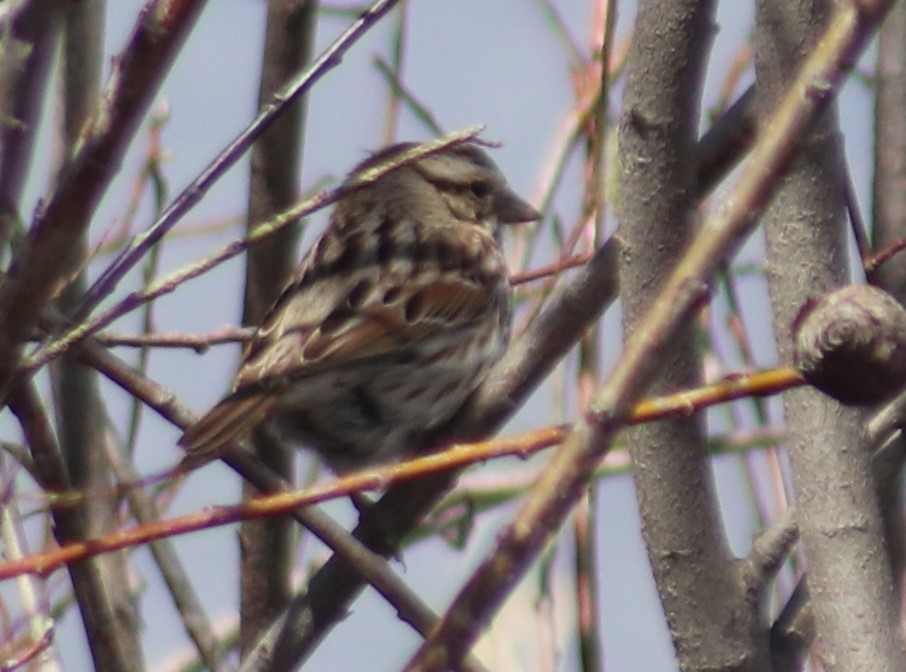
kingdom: Animalia
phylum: Chordata
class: Aves
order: Passeriformes
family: Passerellidae
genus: Melospiza
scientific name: Melospiza melodia
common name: Song sparrow
